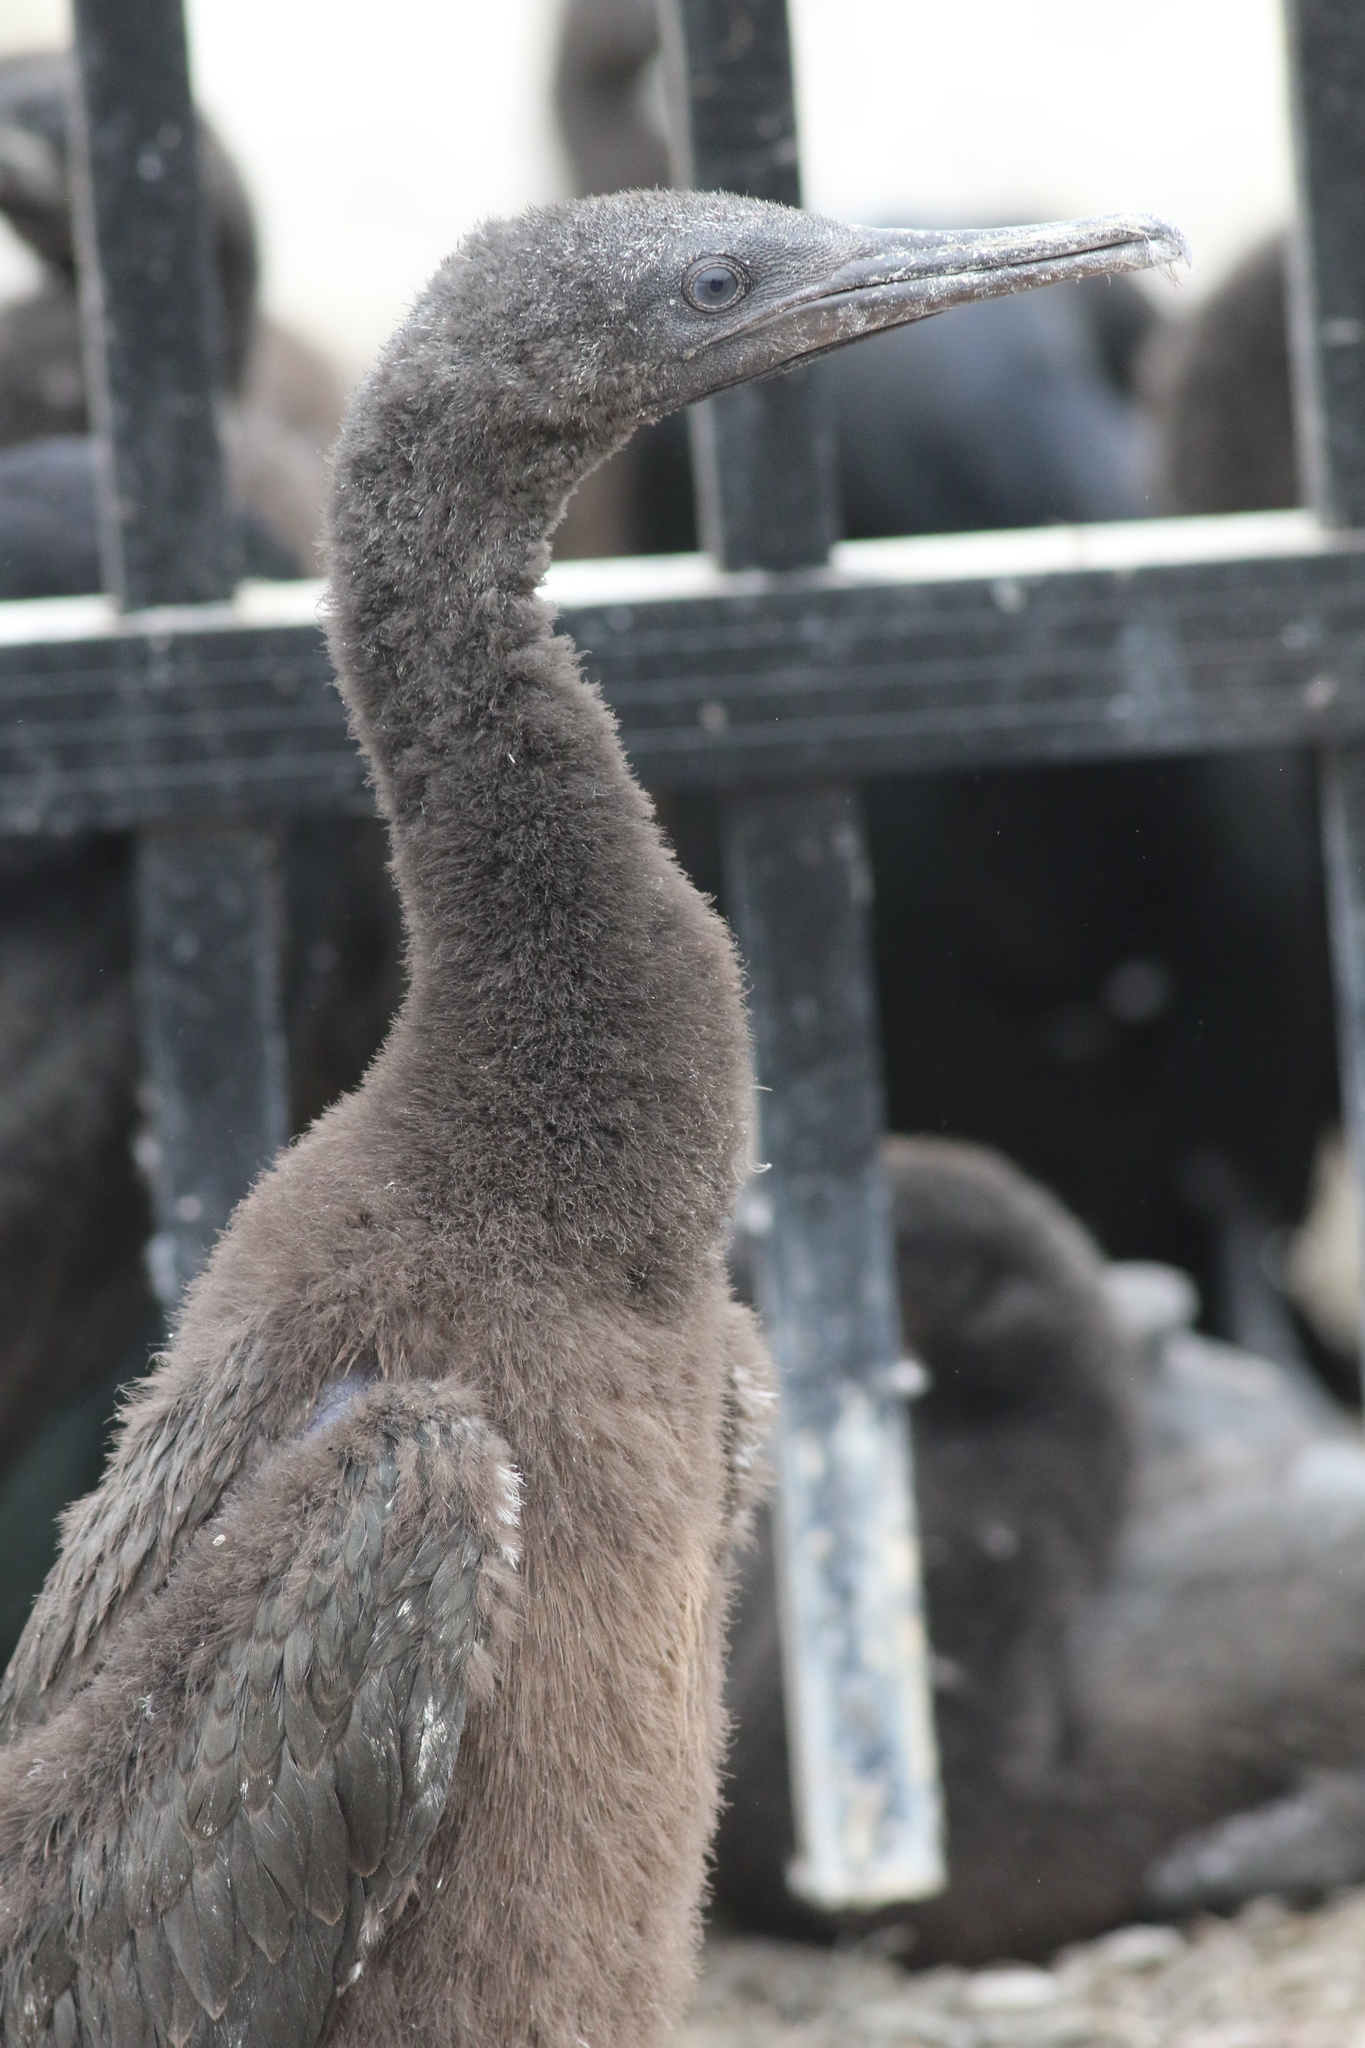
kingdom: Animalia
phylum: Chordata
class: Aves
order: Suliformes
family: Phalacrocoracidae
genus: Urile
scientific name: Urile penicillatus
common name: Brandt's cormorant
